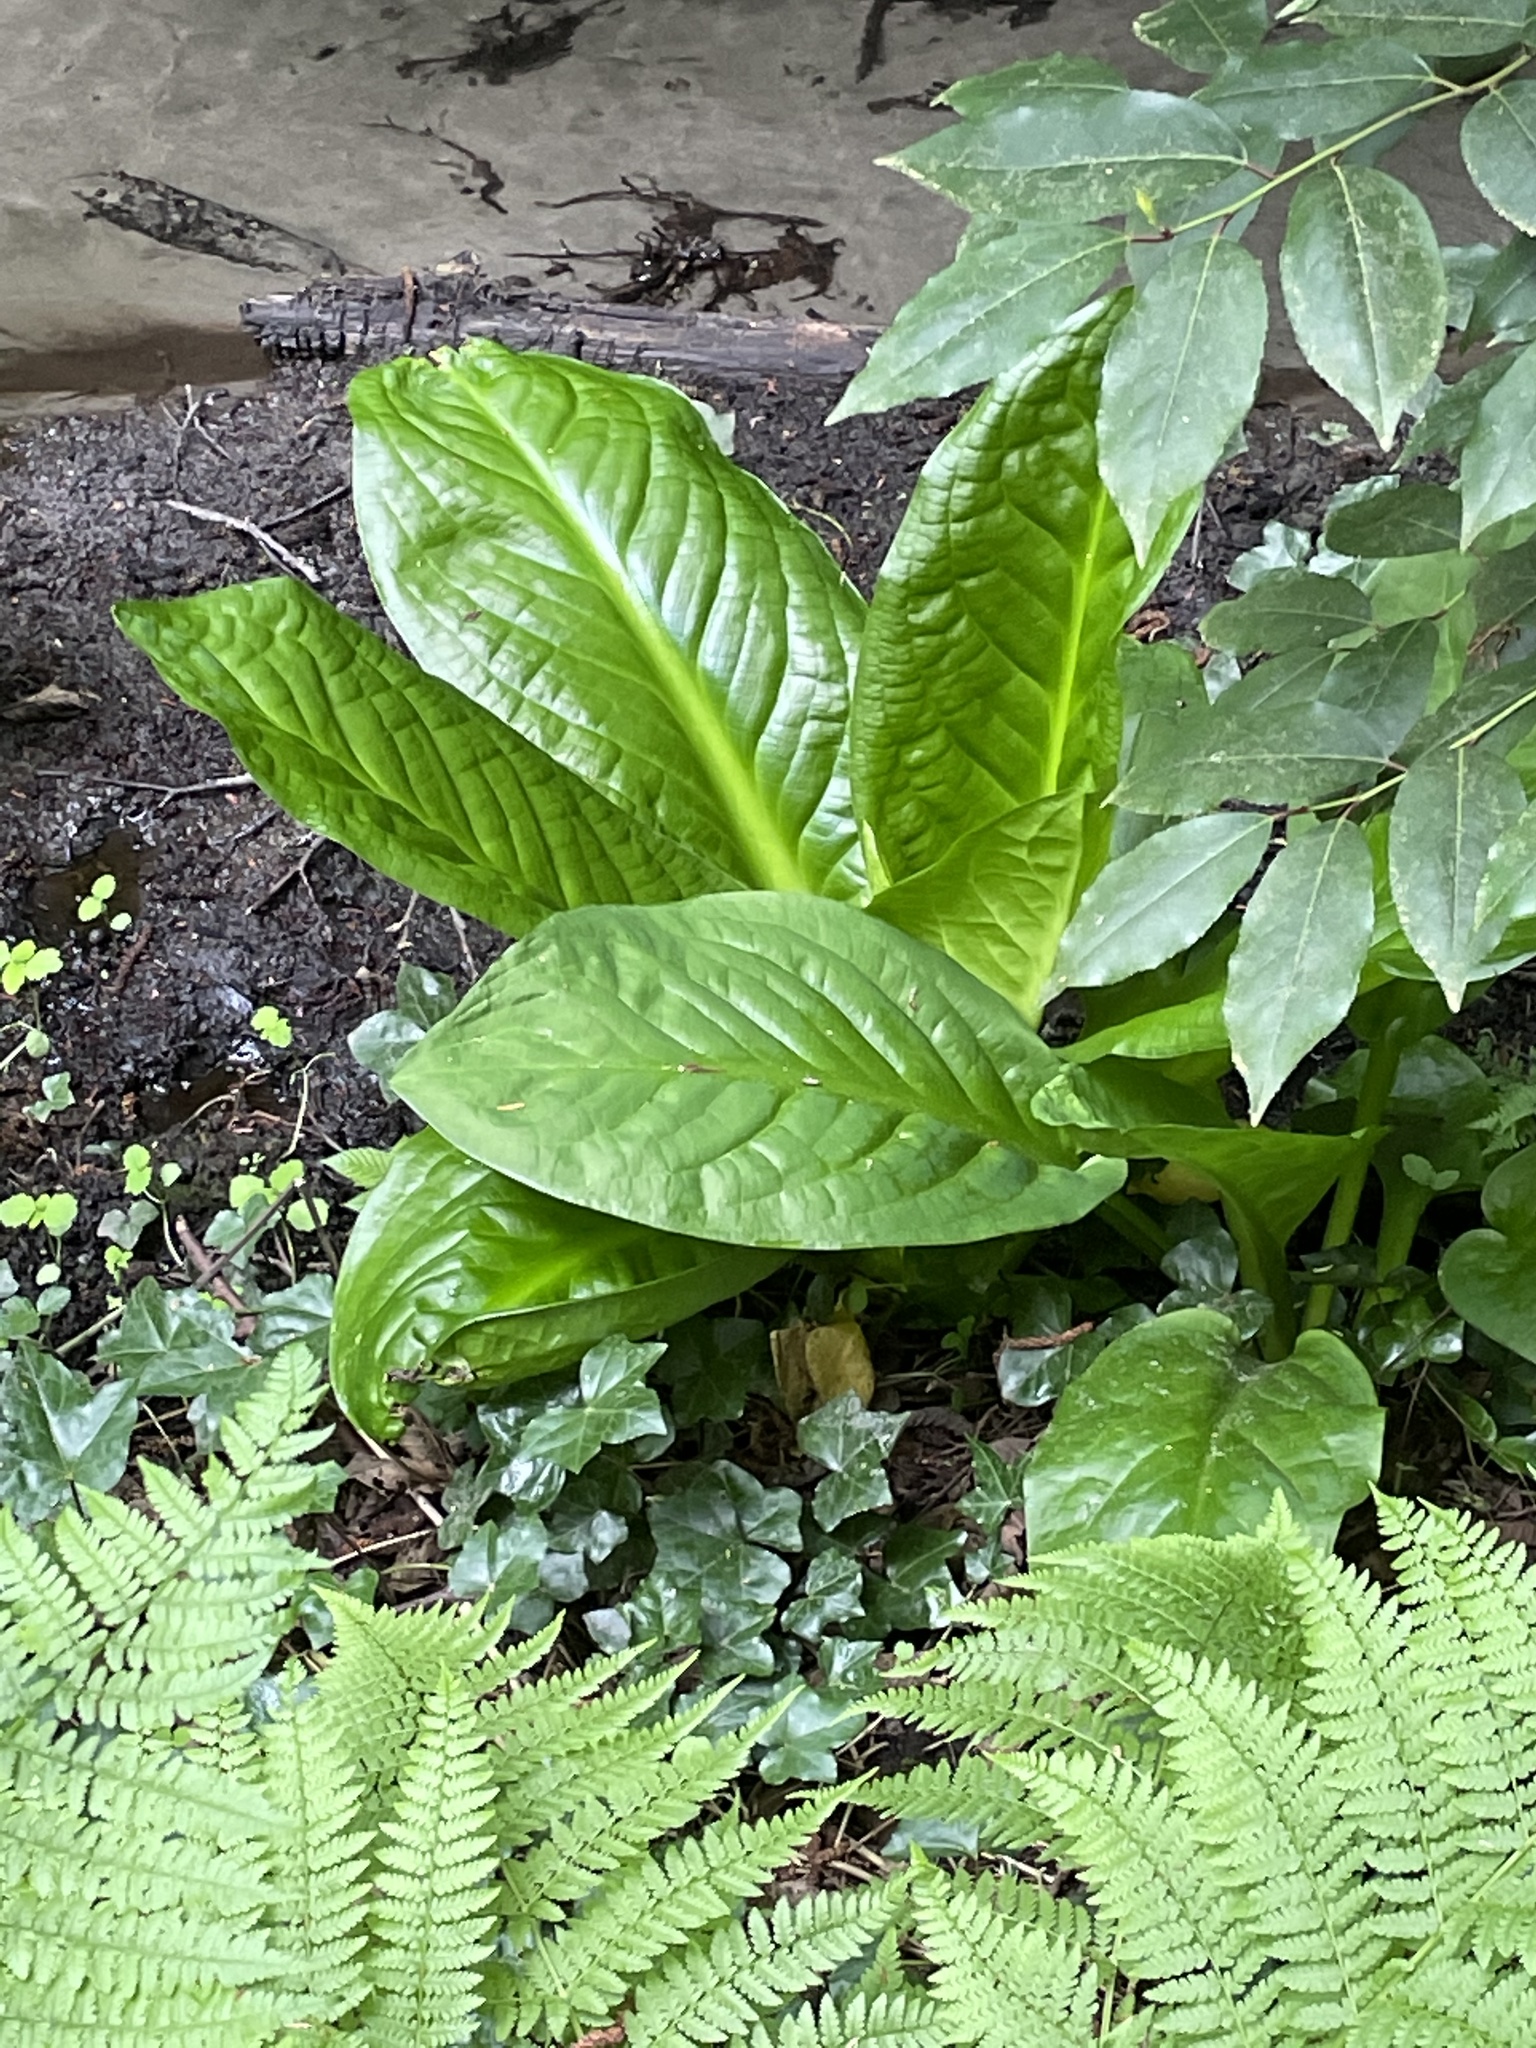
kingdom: Plantae
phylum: Tracheophyta
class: Liliopsida
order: Alismatales
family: Araceae
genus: Lysichiton
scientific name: Lysichiton americanus
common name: American skunk cabbage
